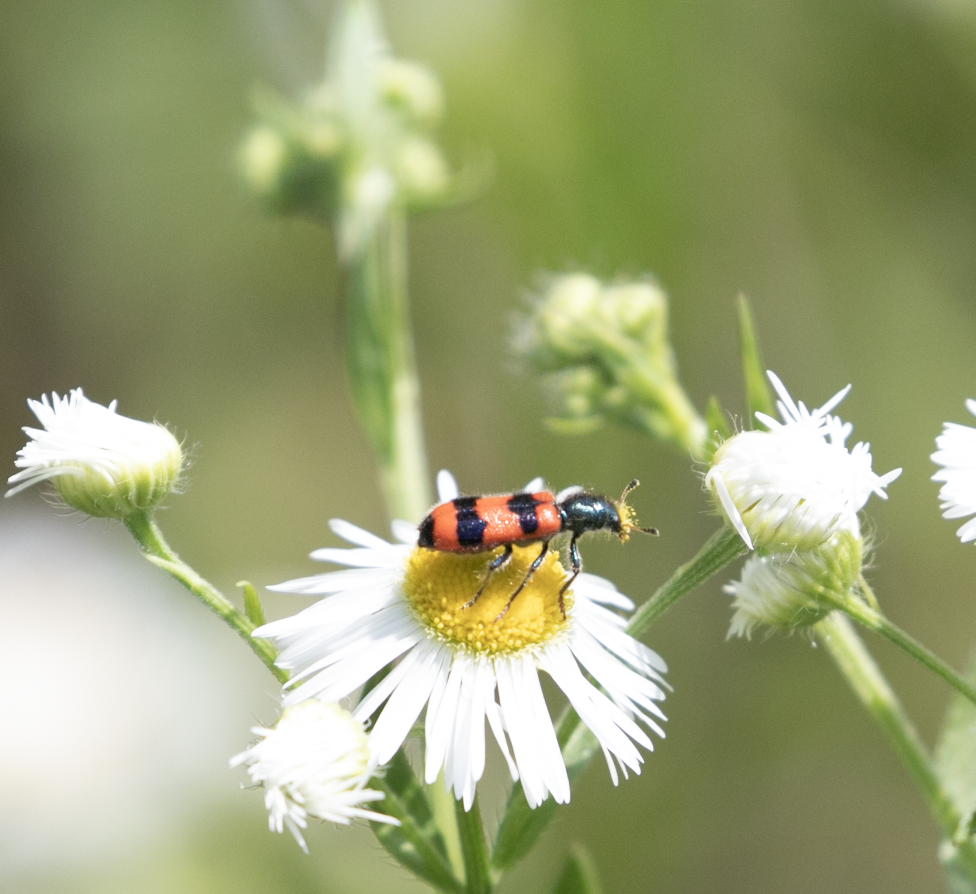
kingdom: Animalia
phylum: Arthropoda
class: Insecta
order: Coleoptera
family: Cleridae
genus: Trichodes
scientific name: Trichodes apiarius
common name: Bee-eating beetle
